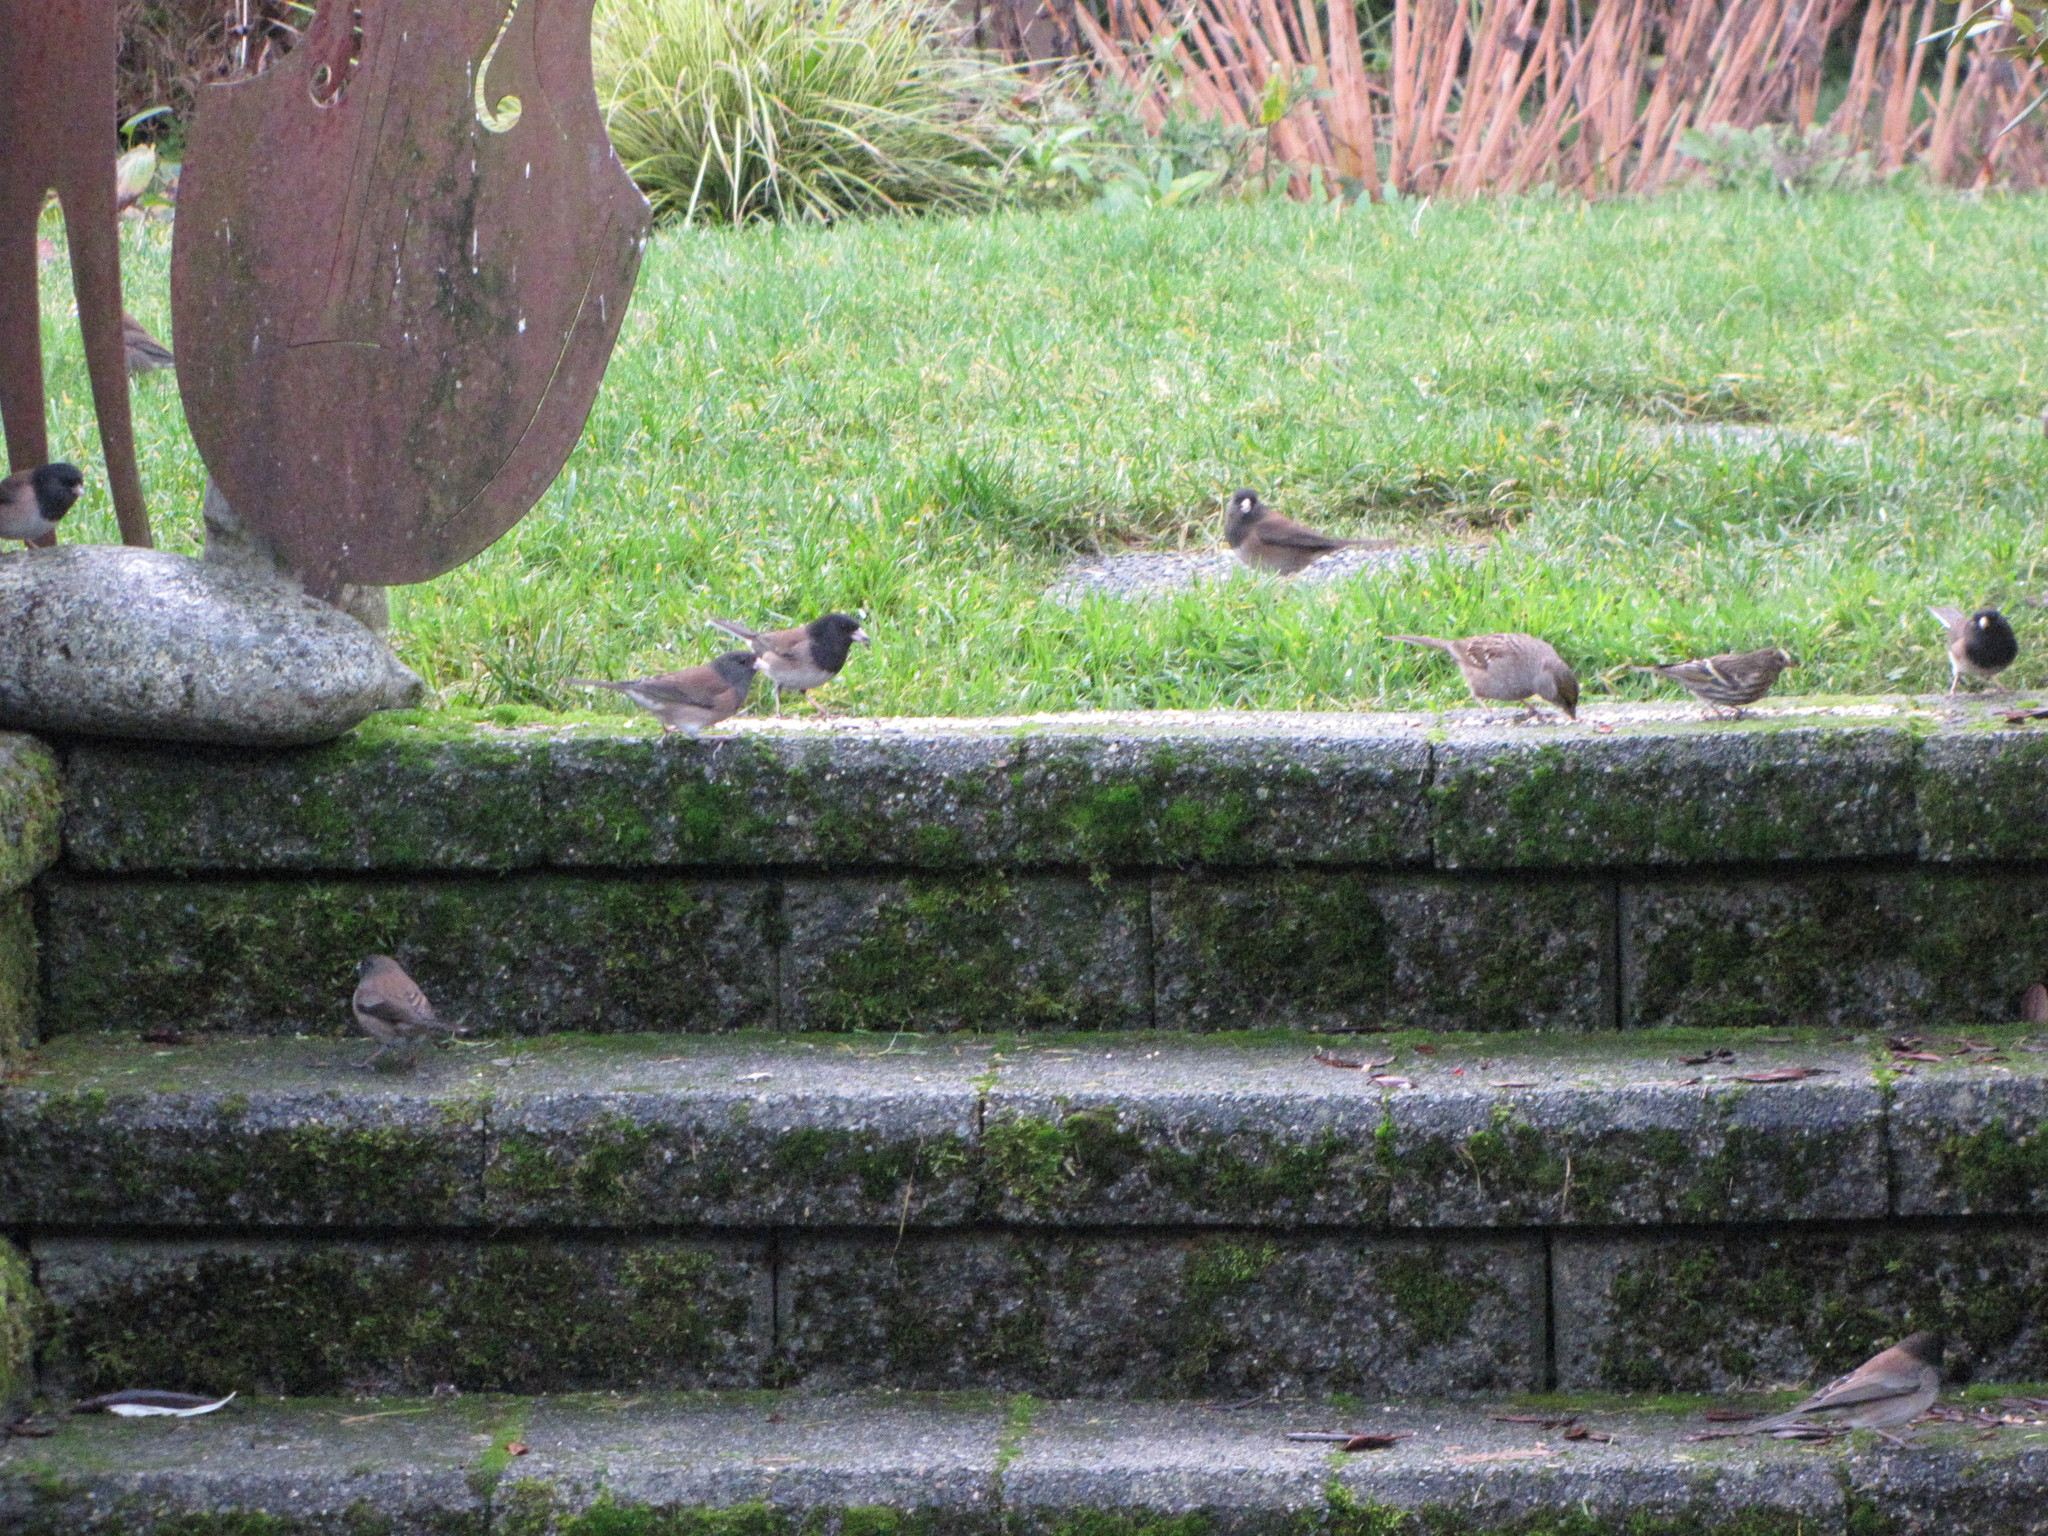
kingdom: Animalia
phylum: Chordata
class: Aves
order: Passeriformes
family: Fringillidae
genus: Spinus
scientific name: Spinus pinus
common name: Pine siskin
